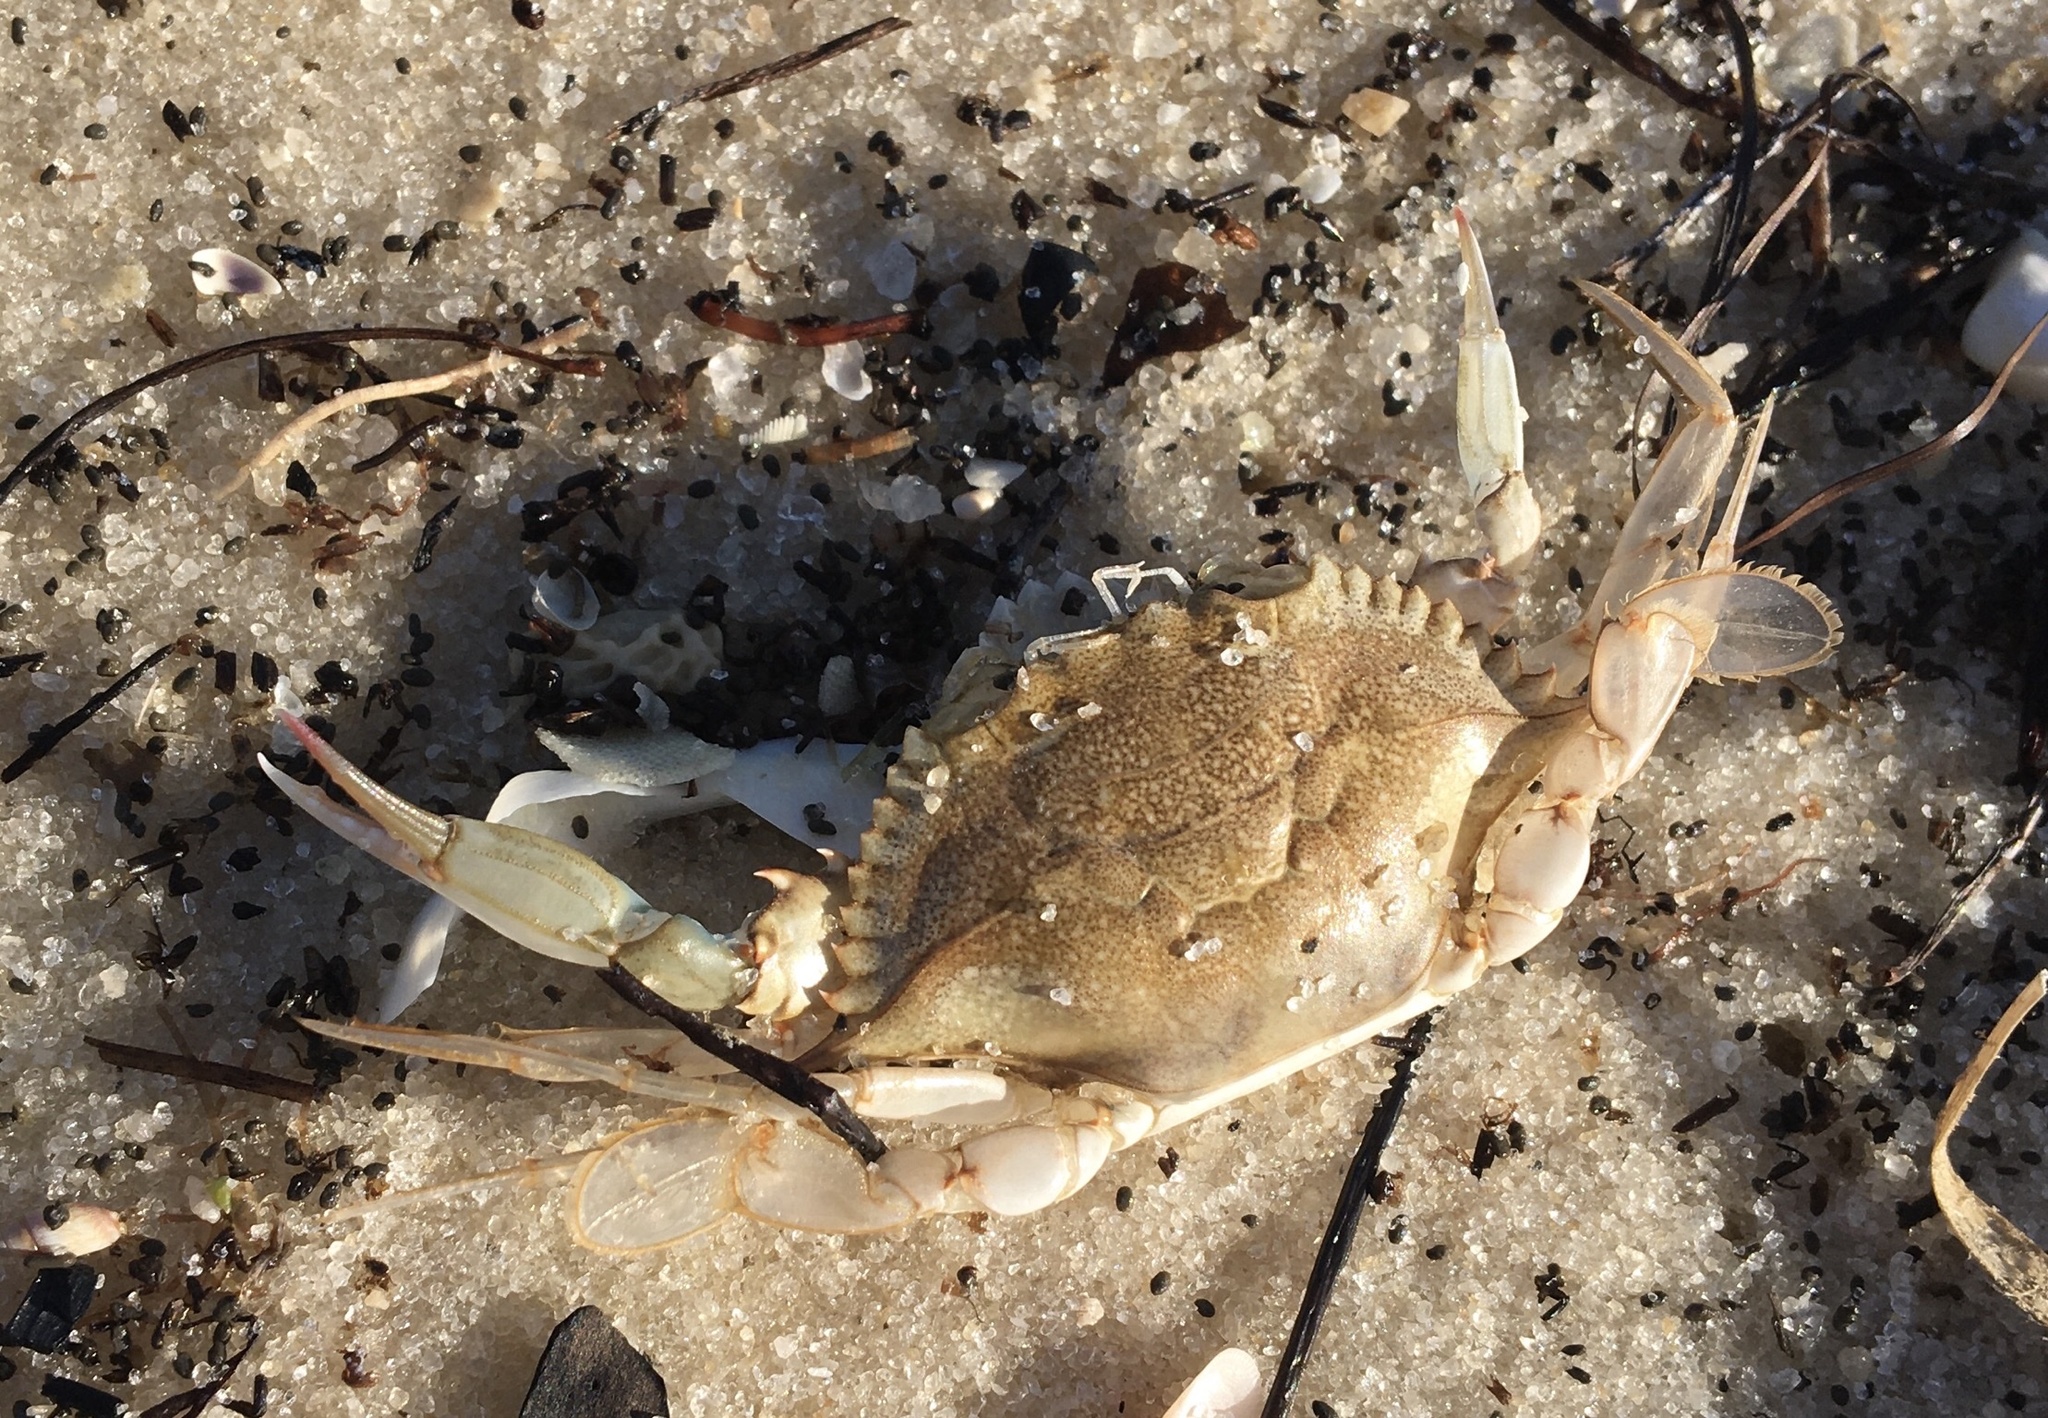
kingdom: Animalia
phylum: Arthropoda
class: Malacostraca
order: Decapoda
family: Portunidae
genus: Callinectes
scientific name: Callinectes sapidus
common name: Blue crab
